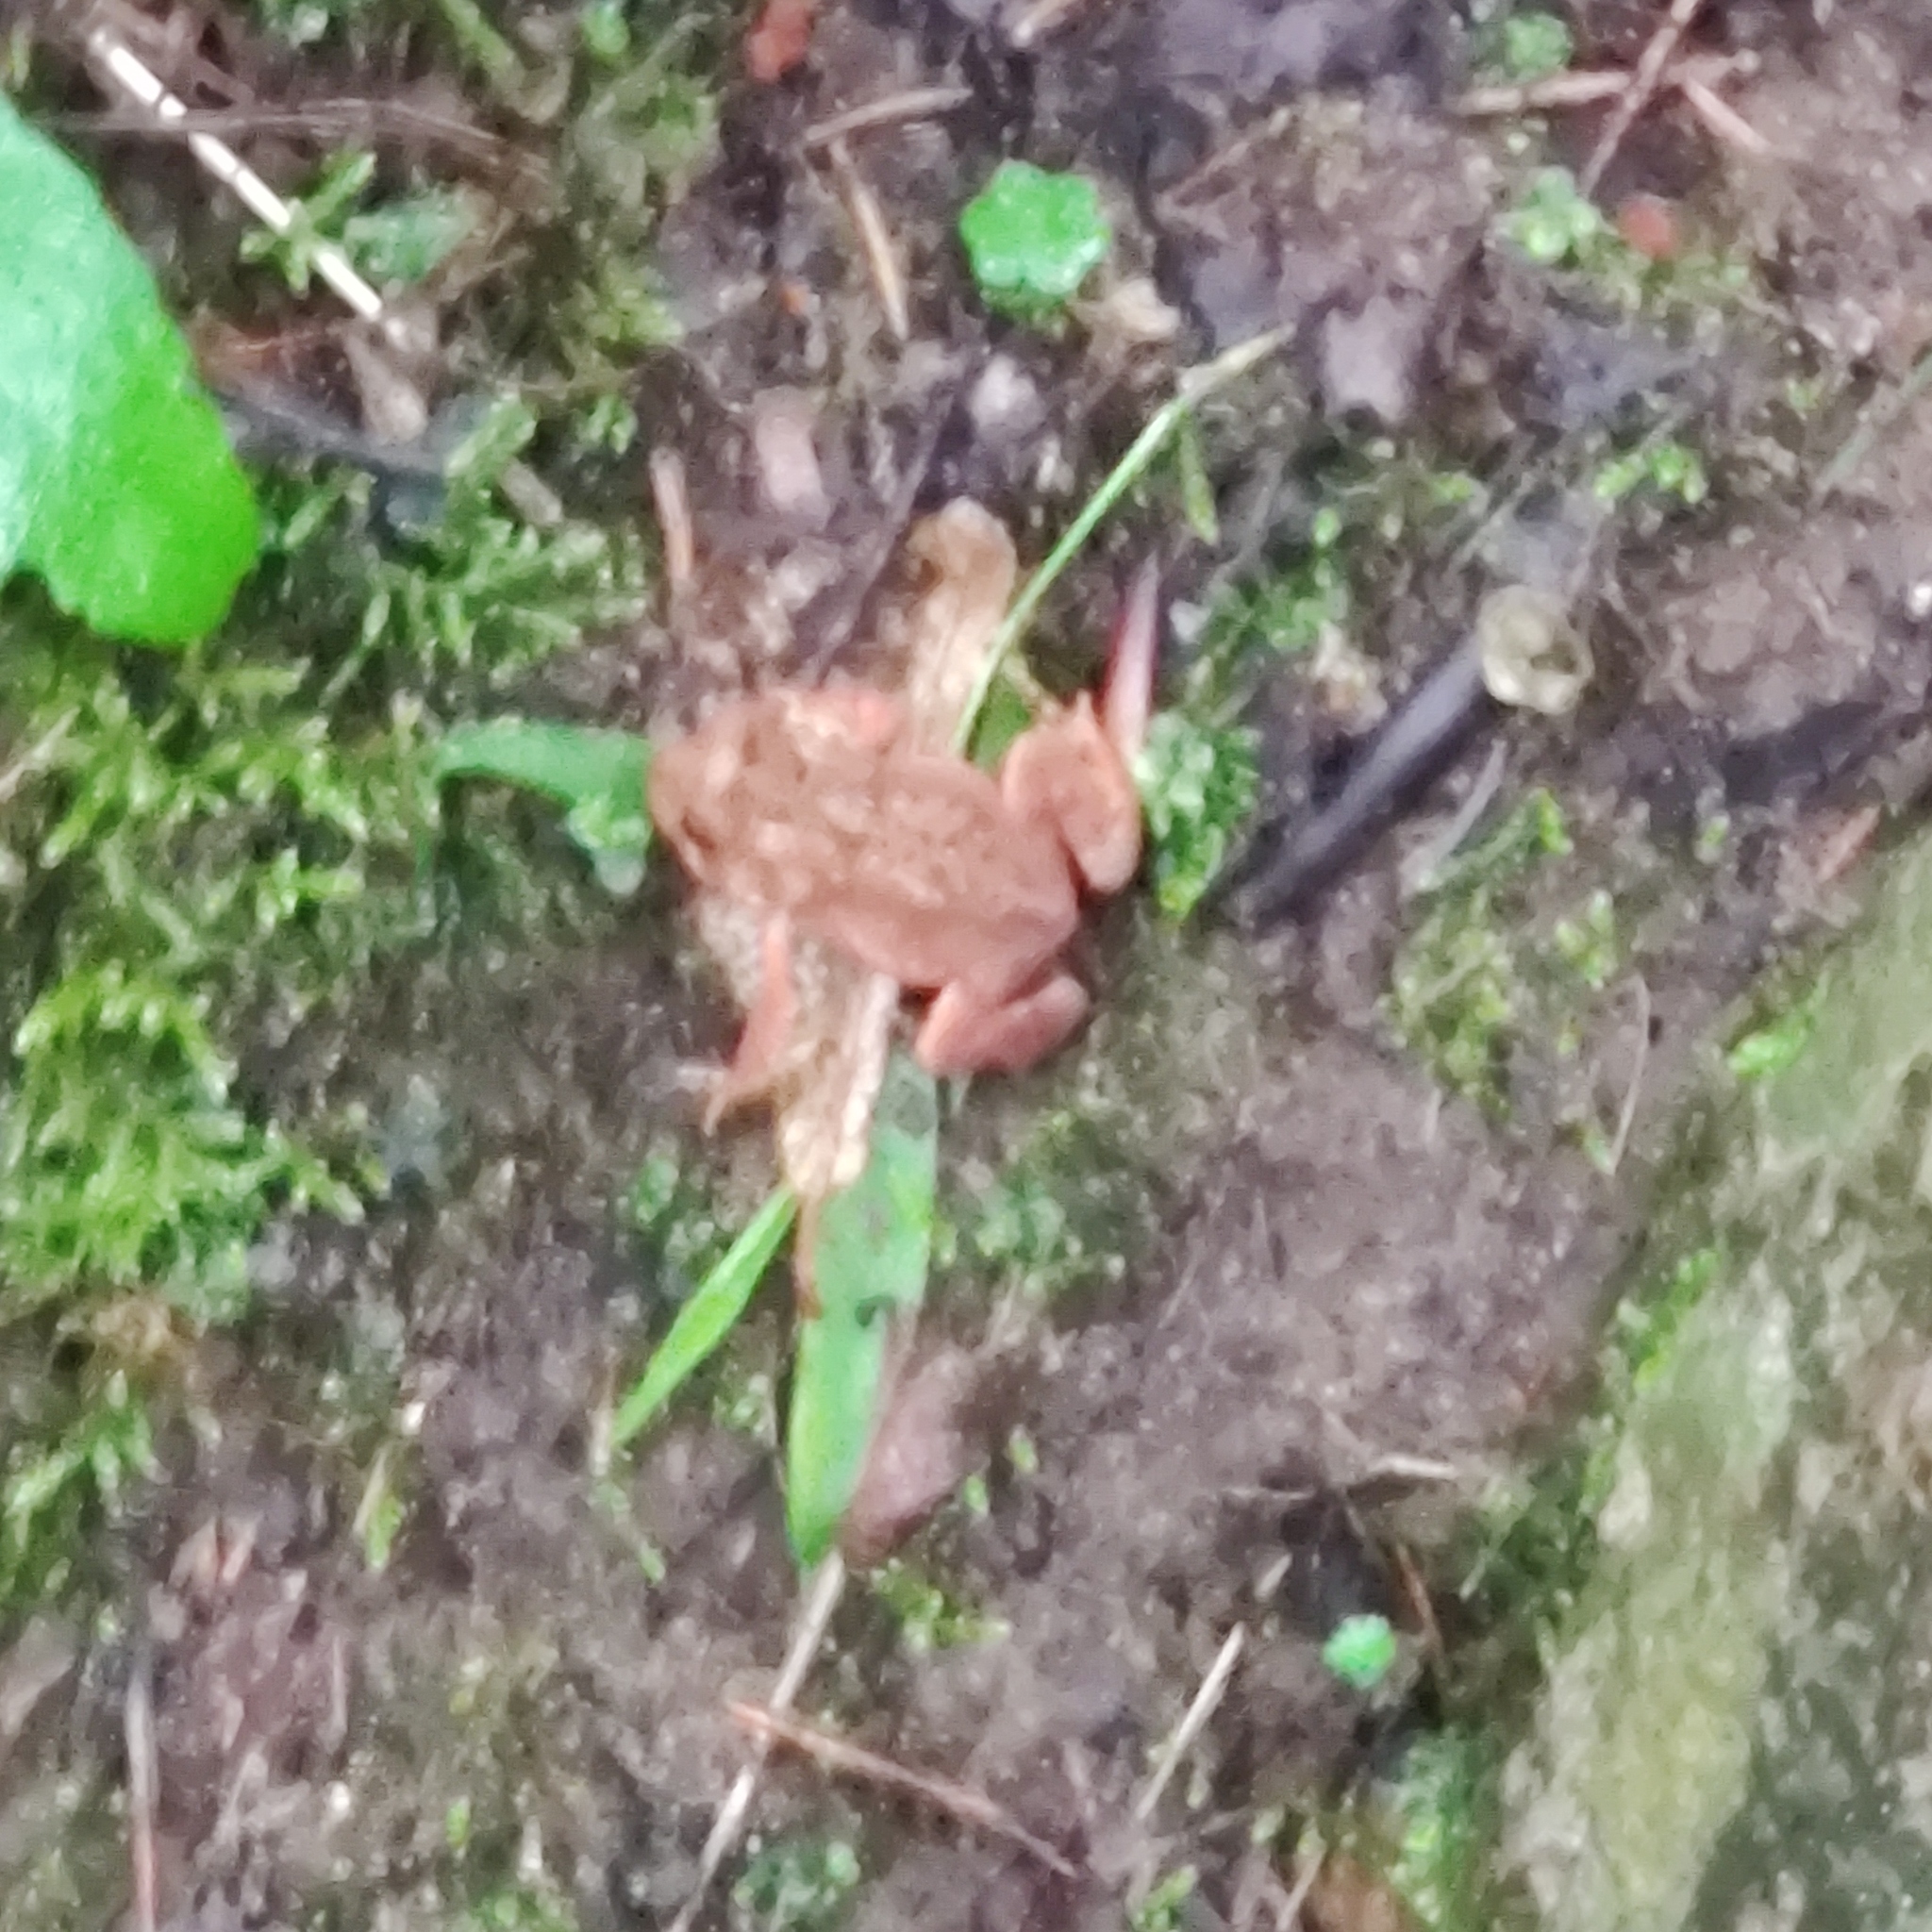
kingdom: Animalia
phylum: Chordata
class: Amphibia
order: Anura
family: Bufonidae
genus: Anaxyrus
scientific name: Anaxyrus americanus
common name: American toad
